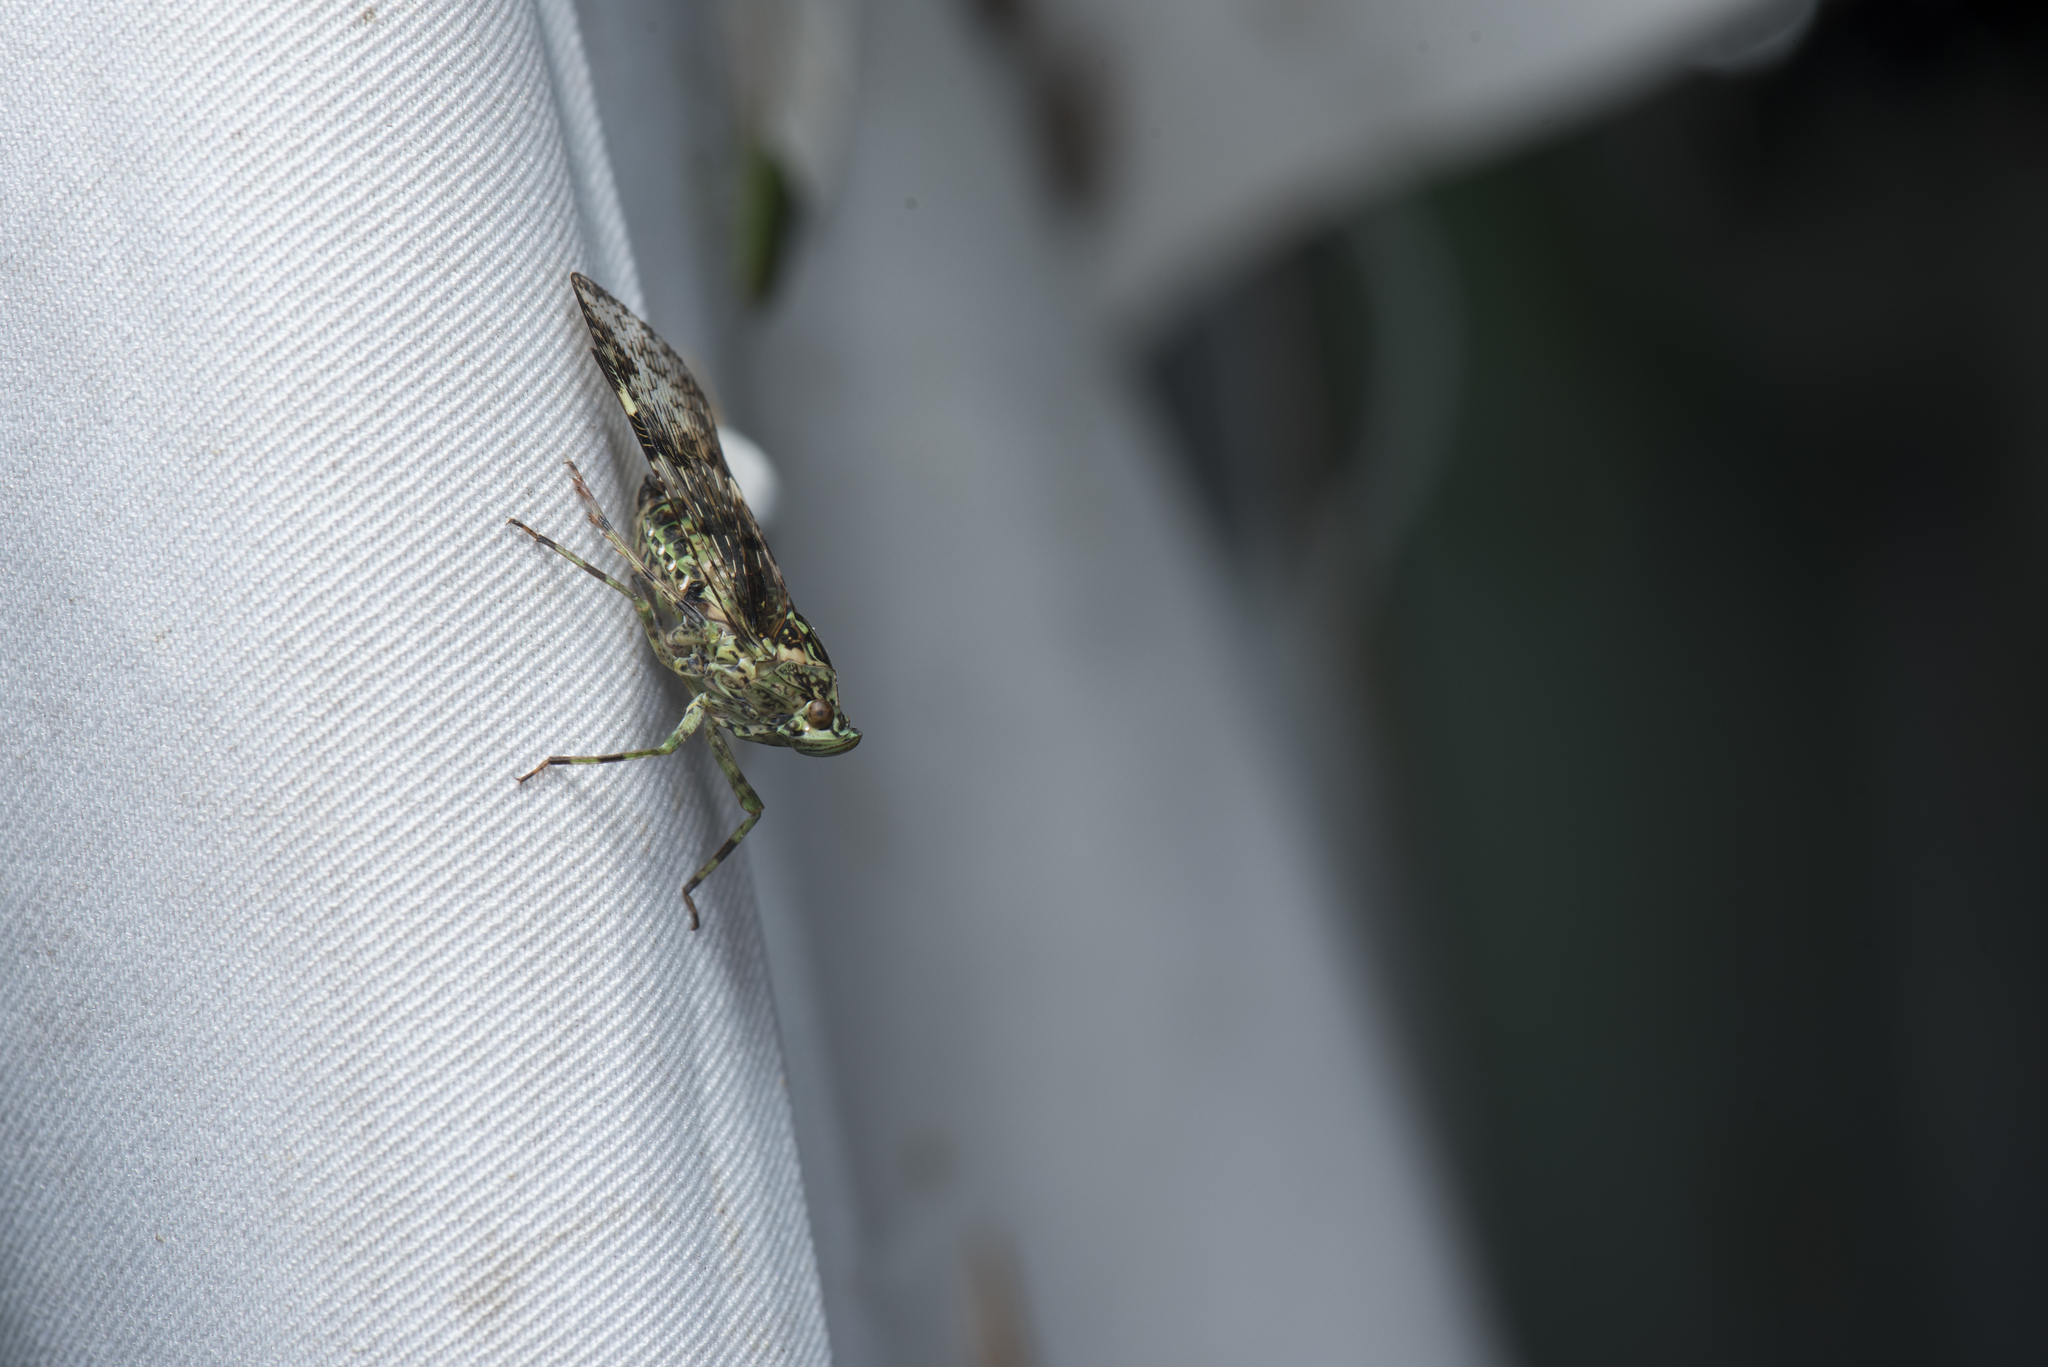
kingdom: Animalia
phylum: Arthropoda
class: Insecta
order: Hemiptera
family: Fulgoridae
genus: Dichoptera
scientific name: Dichoptera similis
